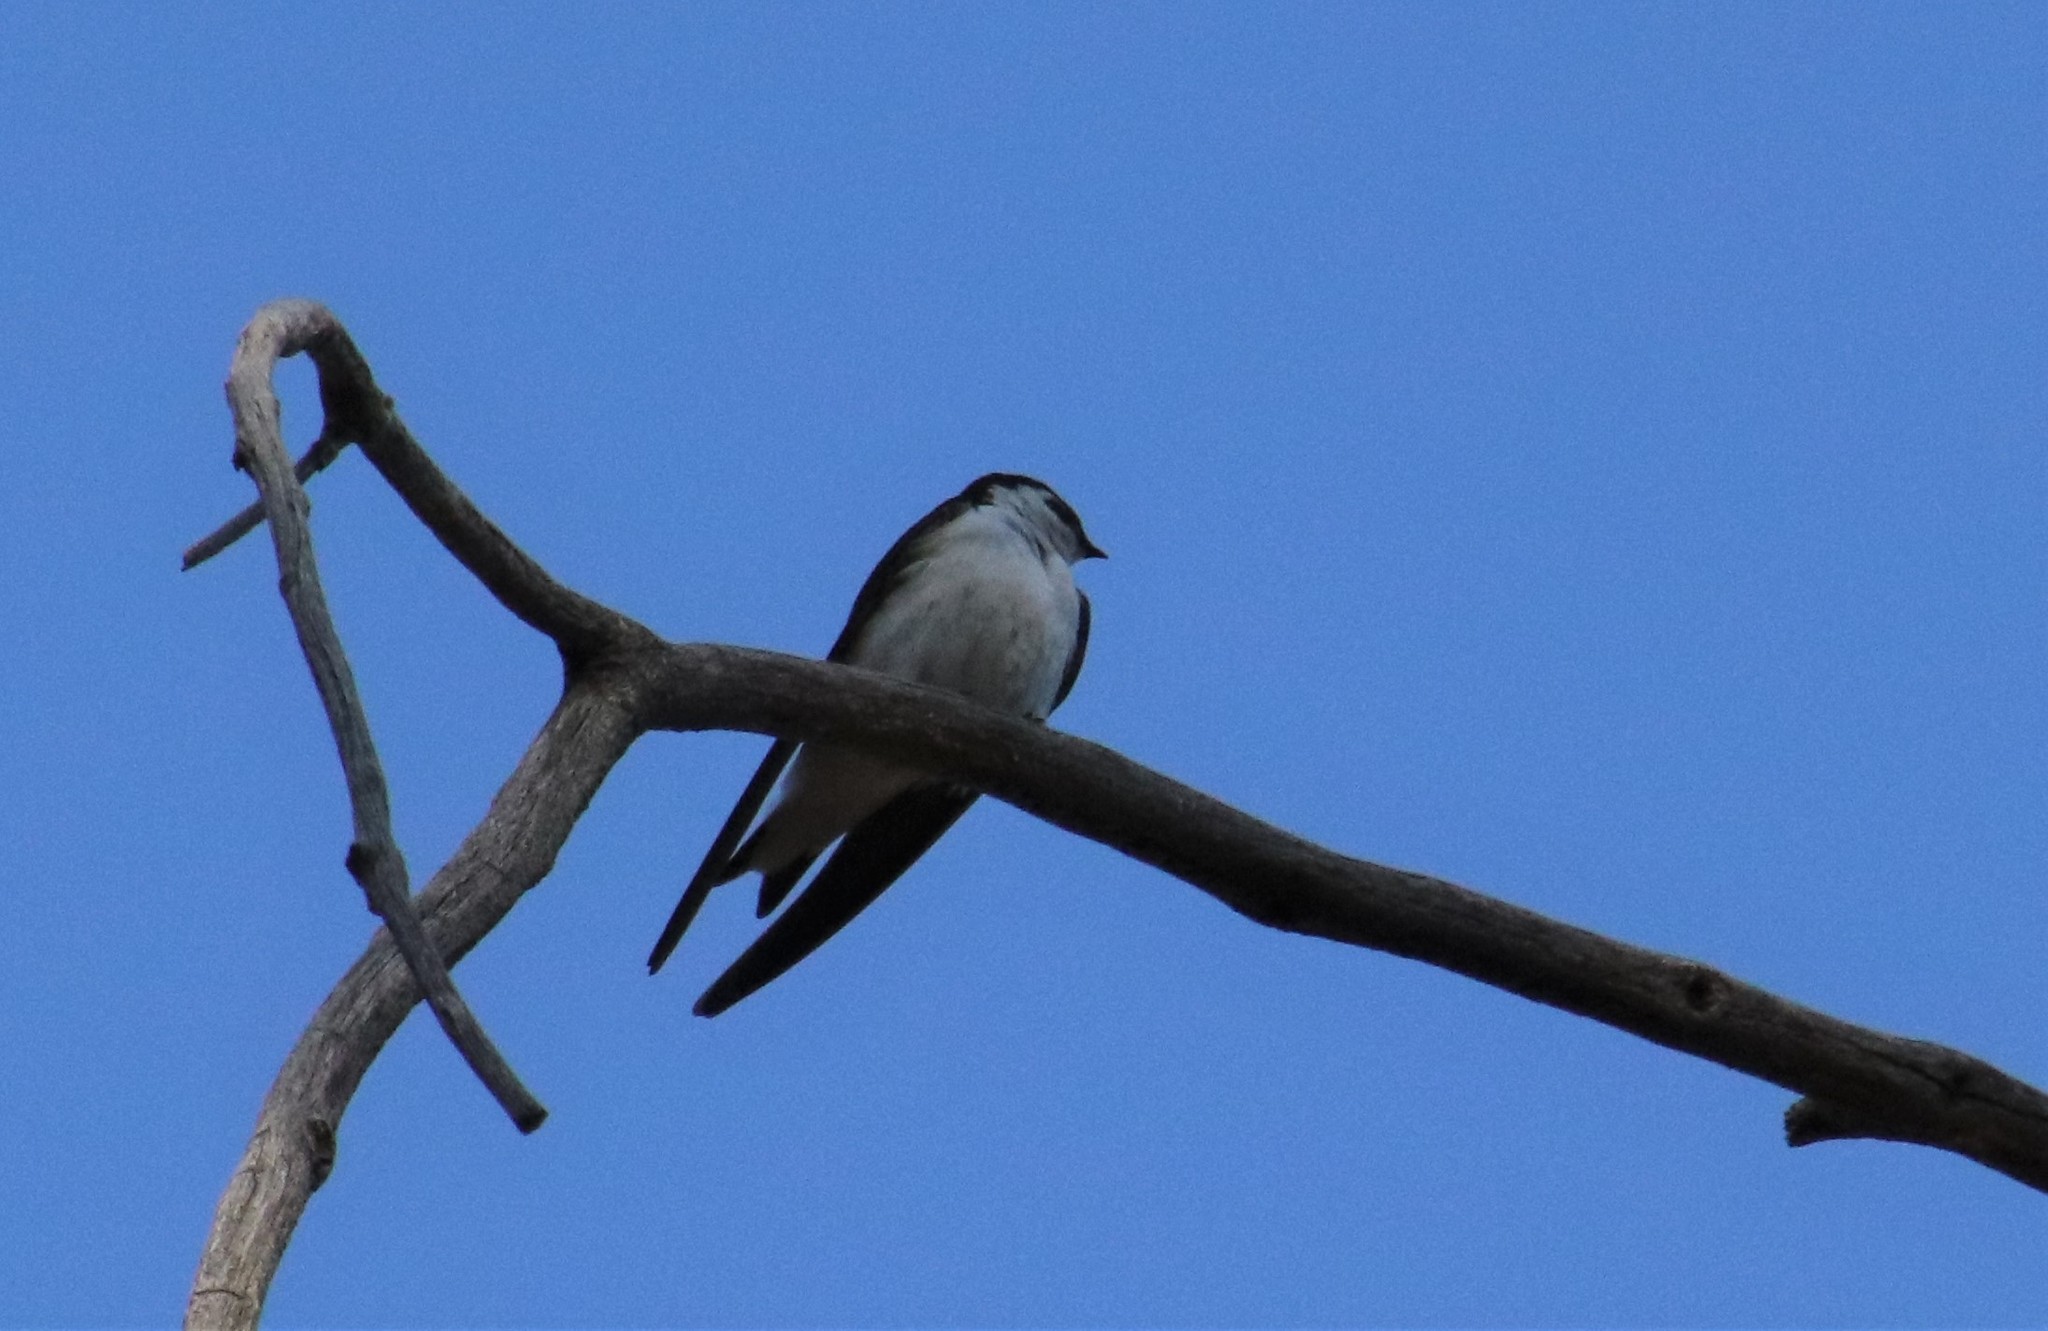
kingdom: Animalia
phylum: Chordata
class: Aves
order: Passeriformes
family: Hirundinidae
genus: Tachycineta
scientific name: Tachycineta thalassina
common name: Violet-green swallow
